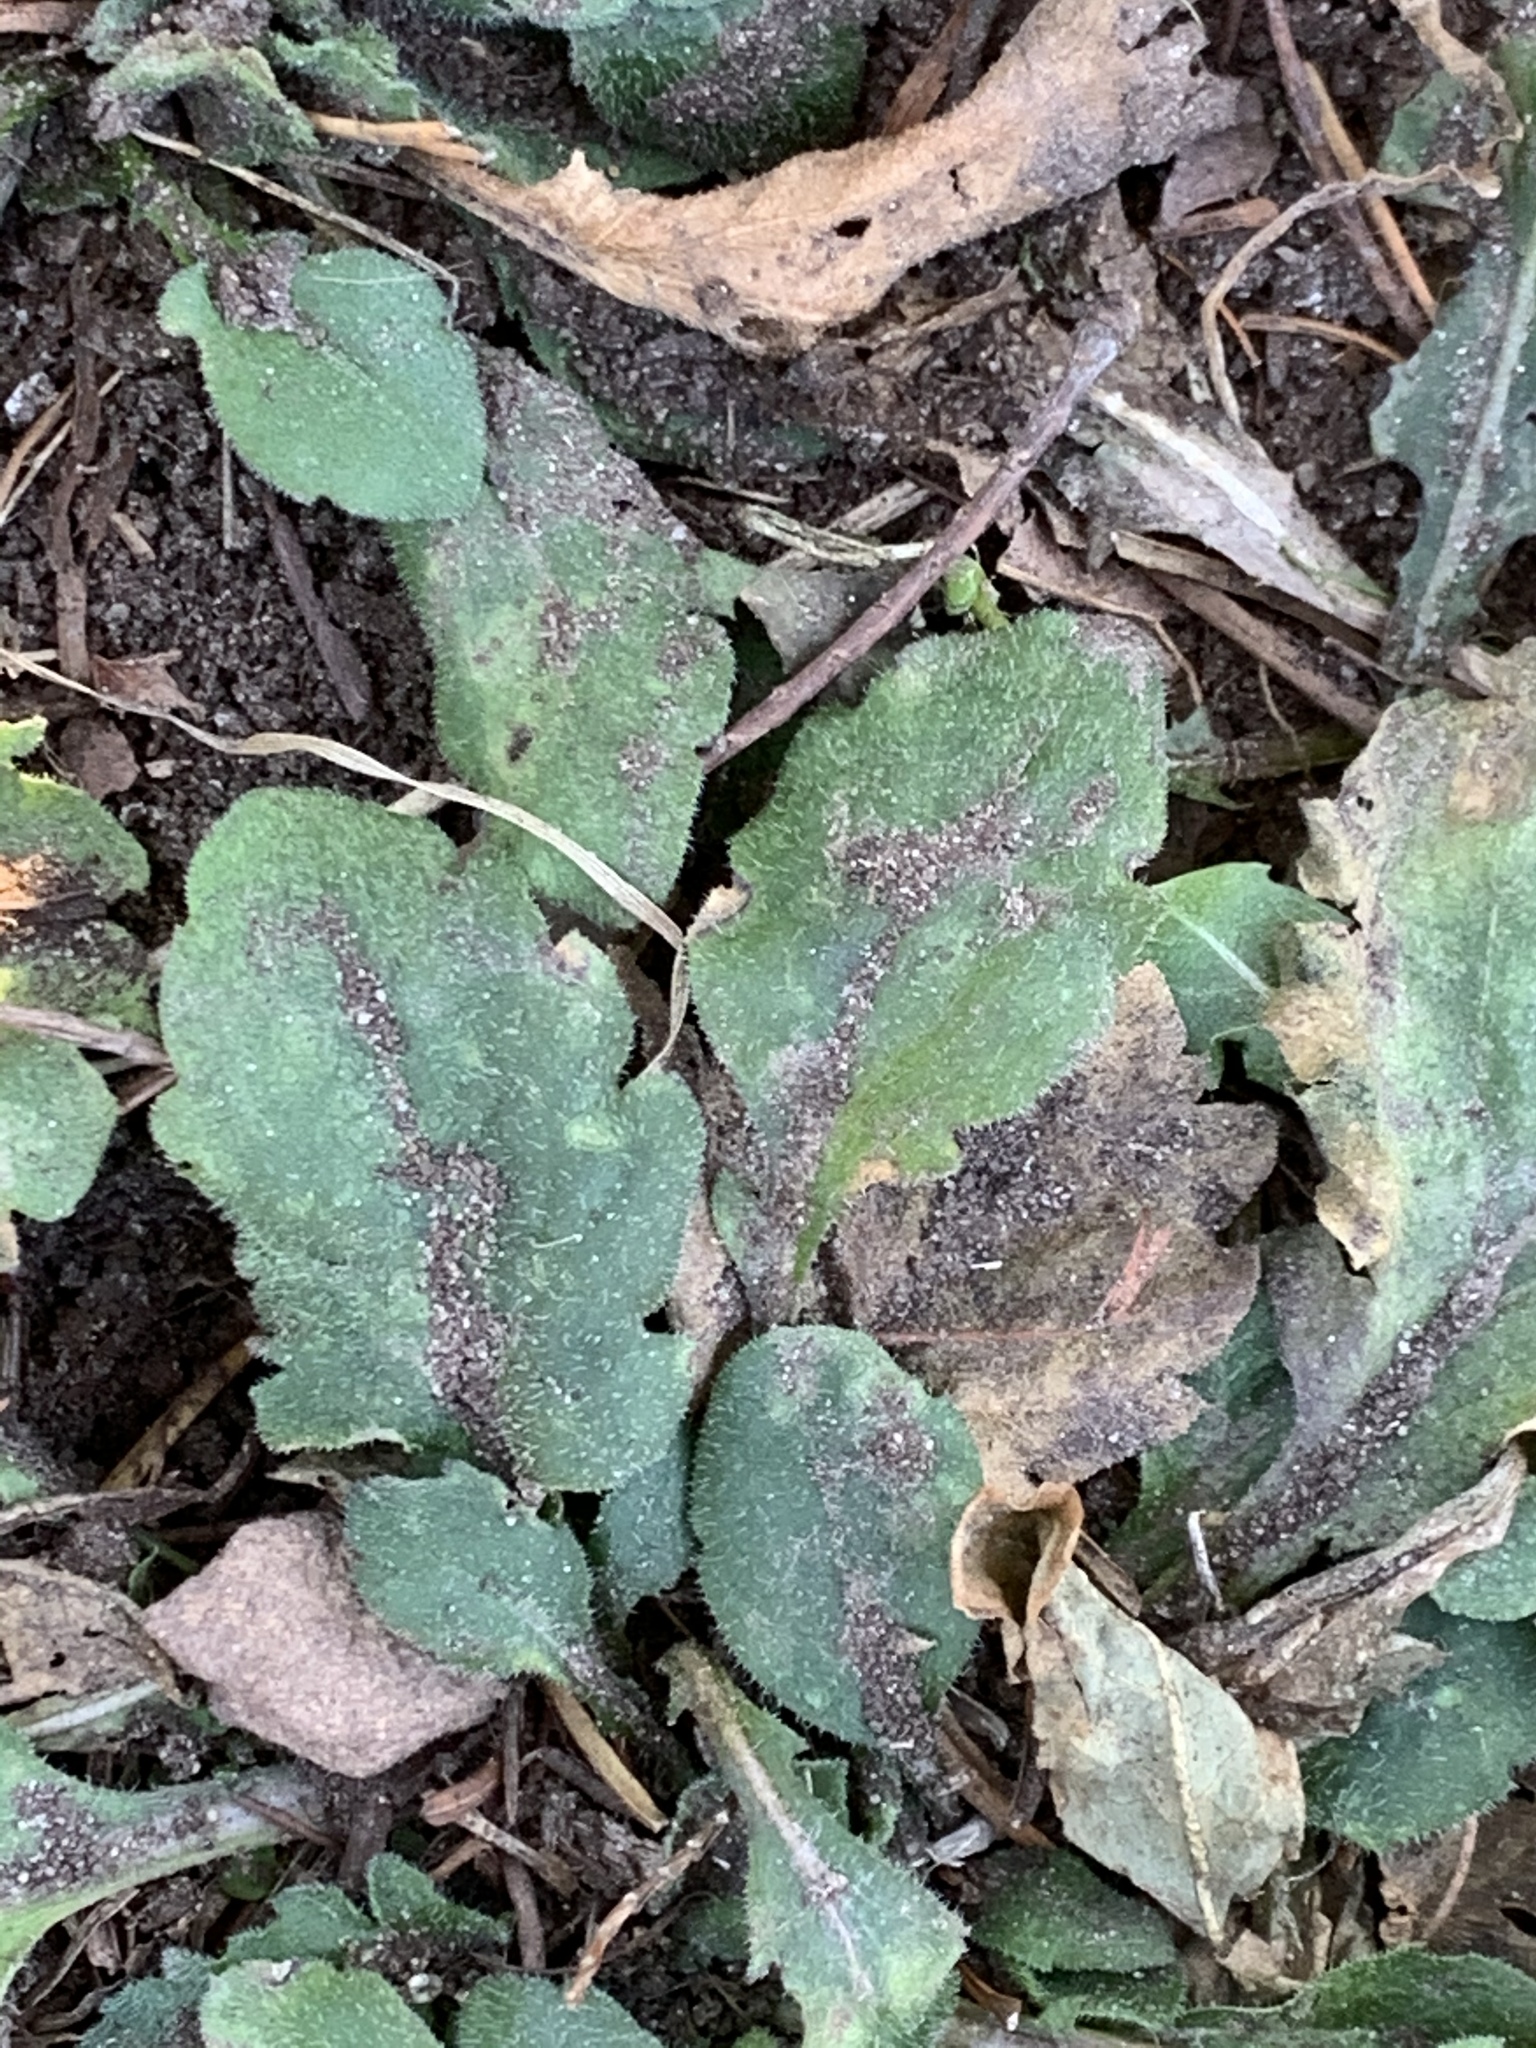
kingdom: Plantae
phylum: Tracheophyta
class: Magnoliopsida
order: Asterales
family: Asteraceae
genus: Erigeron
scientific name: Erigeron canadensis
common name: Canadian fleabane
